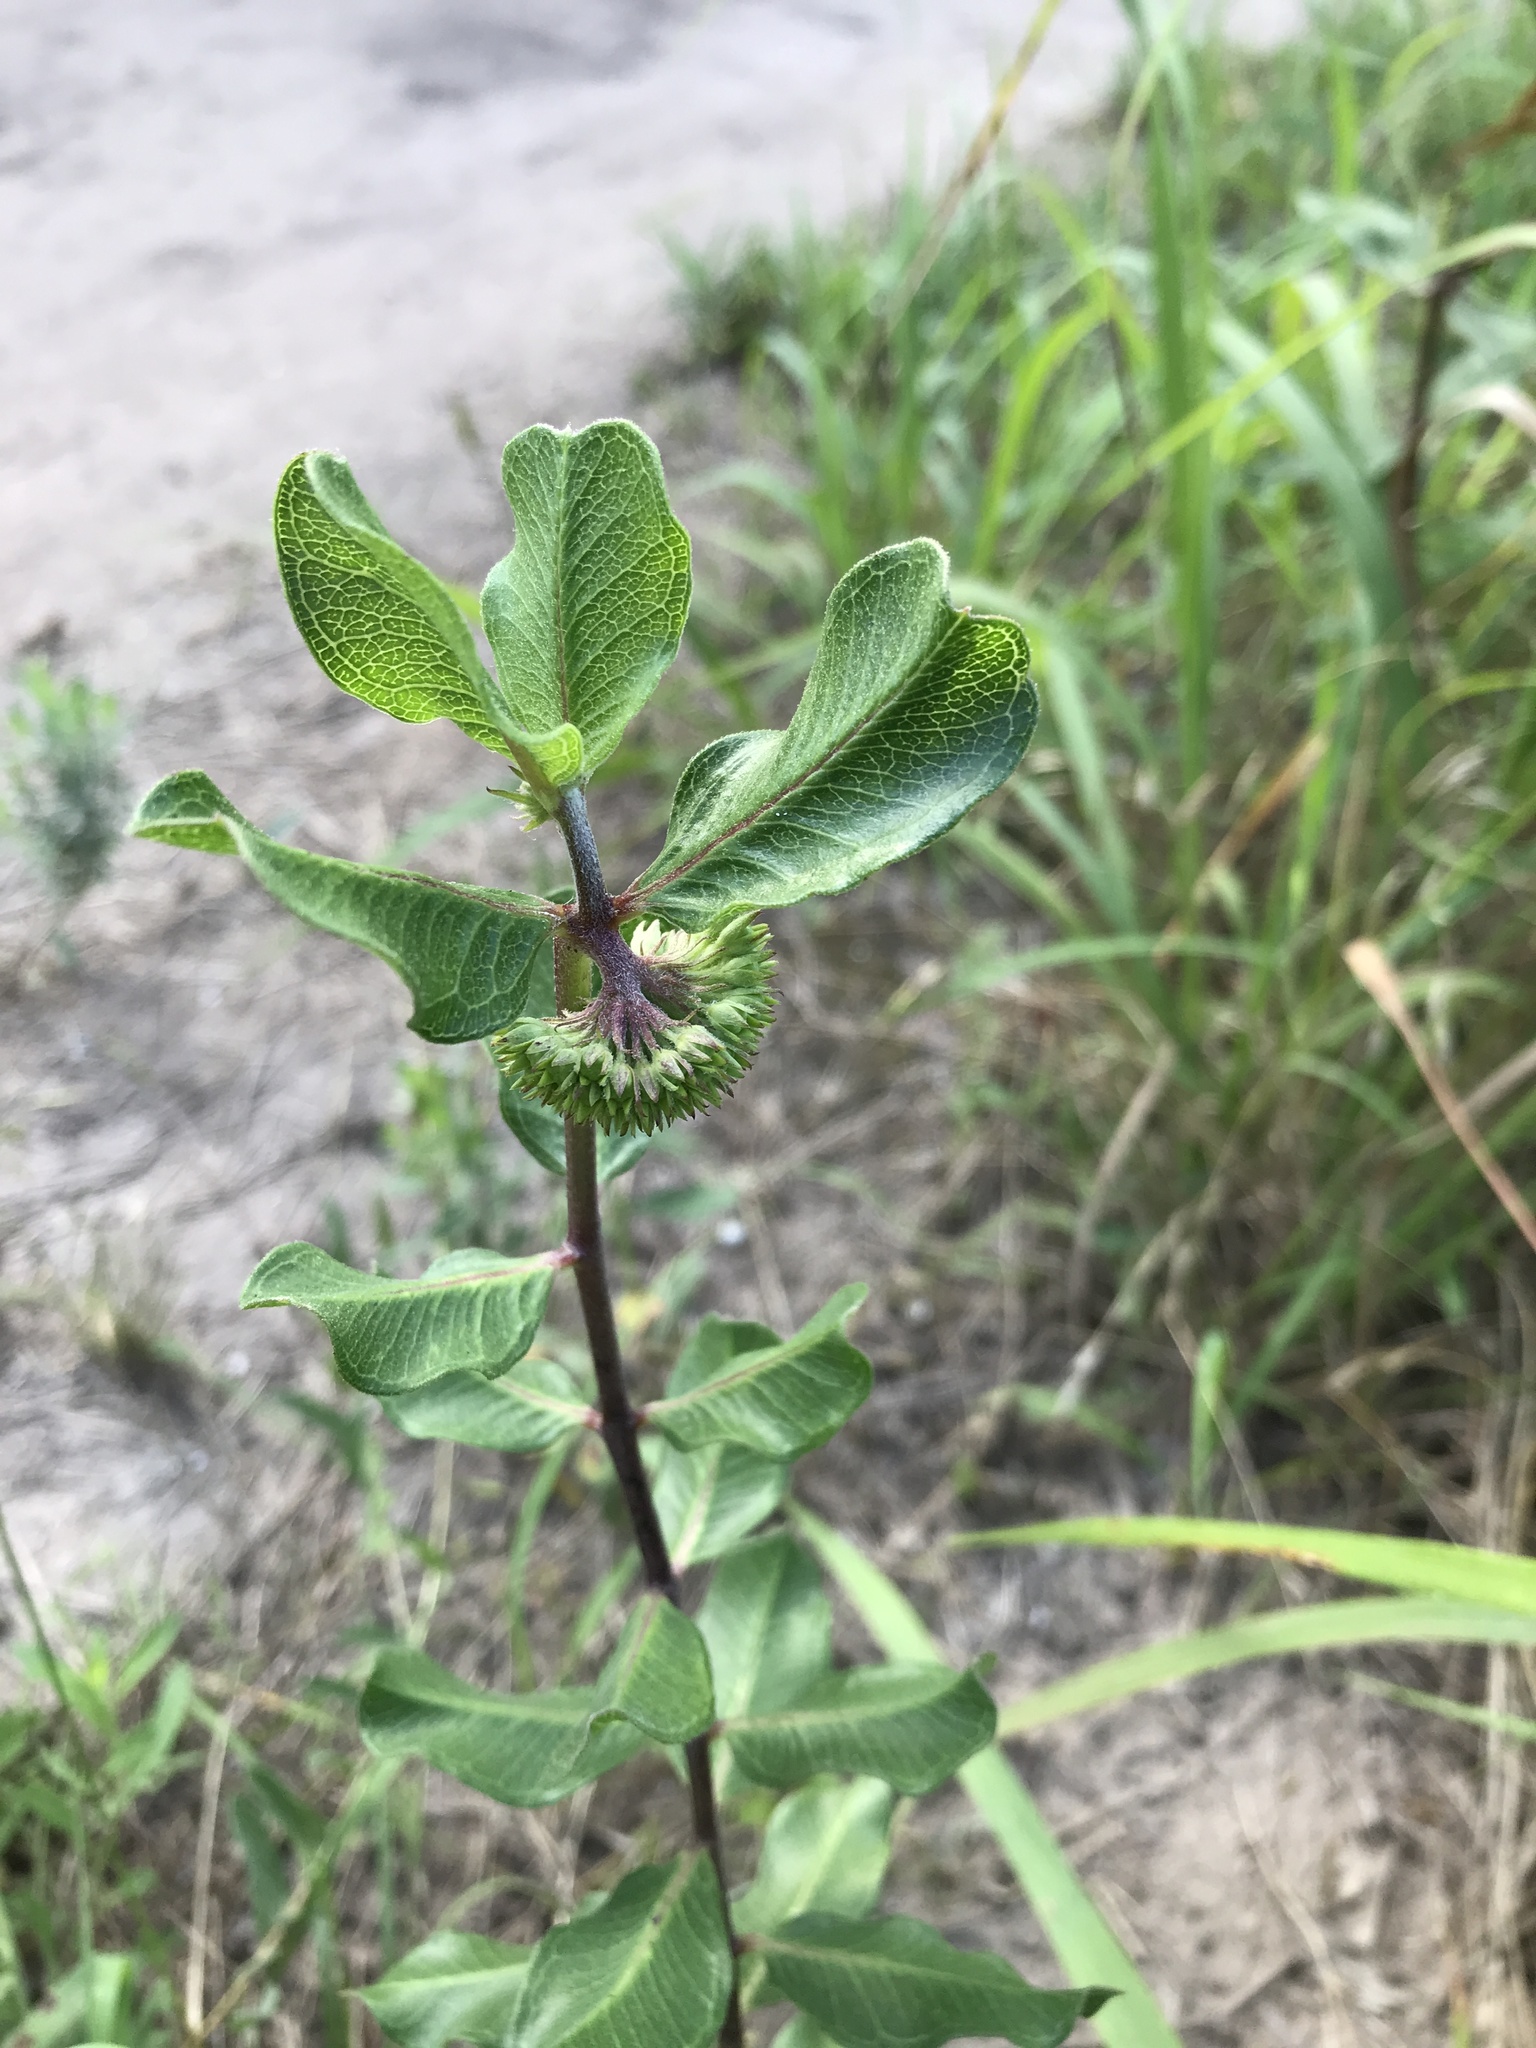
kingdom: Plantae
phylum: Tracheophyta
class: Magnoliopsida
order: Gentianales
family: Apocynaceae
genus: Asclepias
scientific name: Asclepias viridiflora
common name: Green comet milkweed
